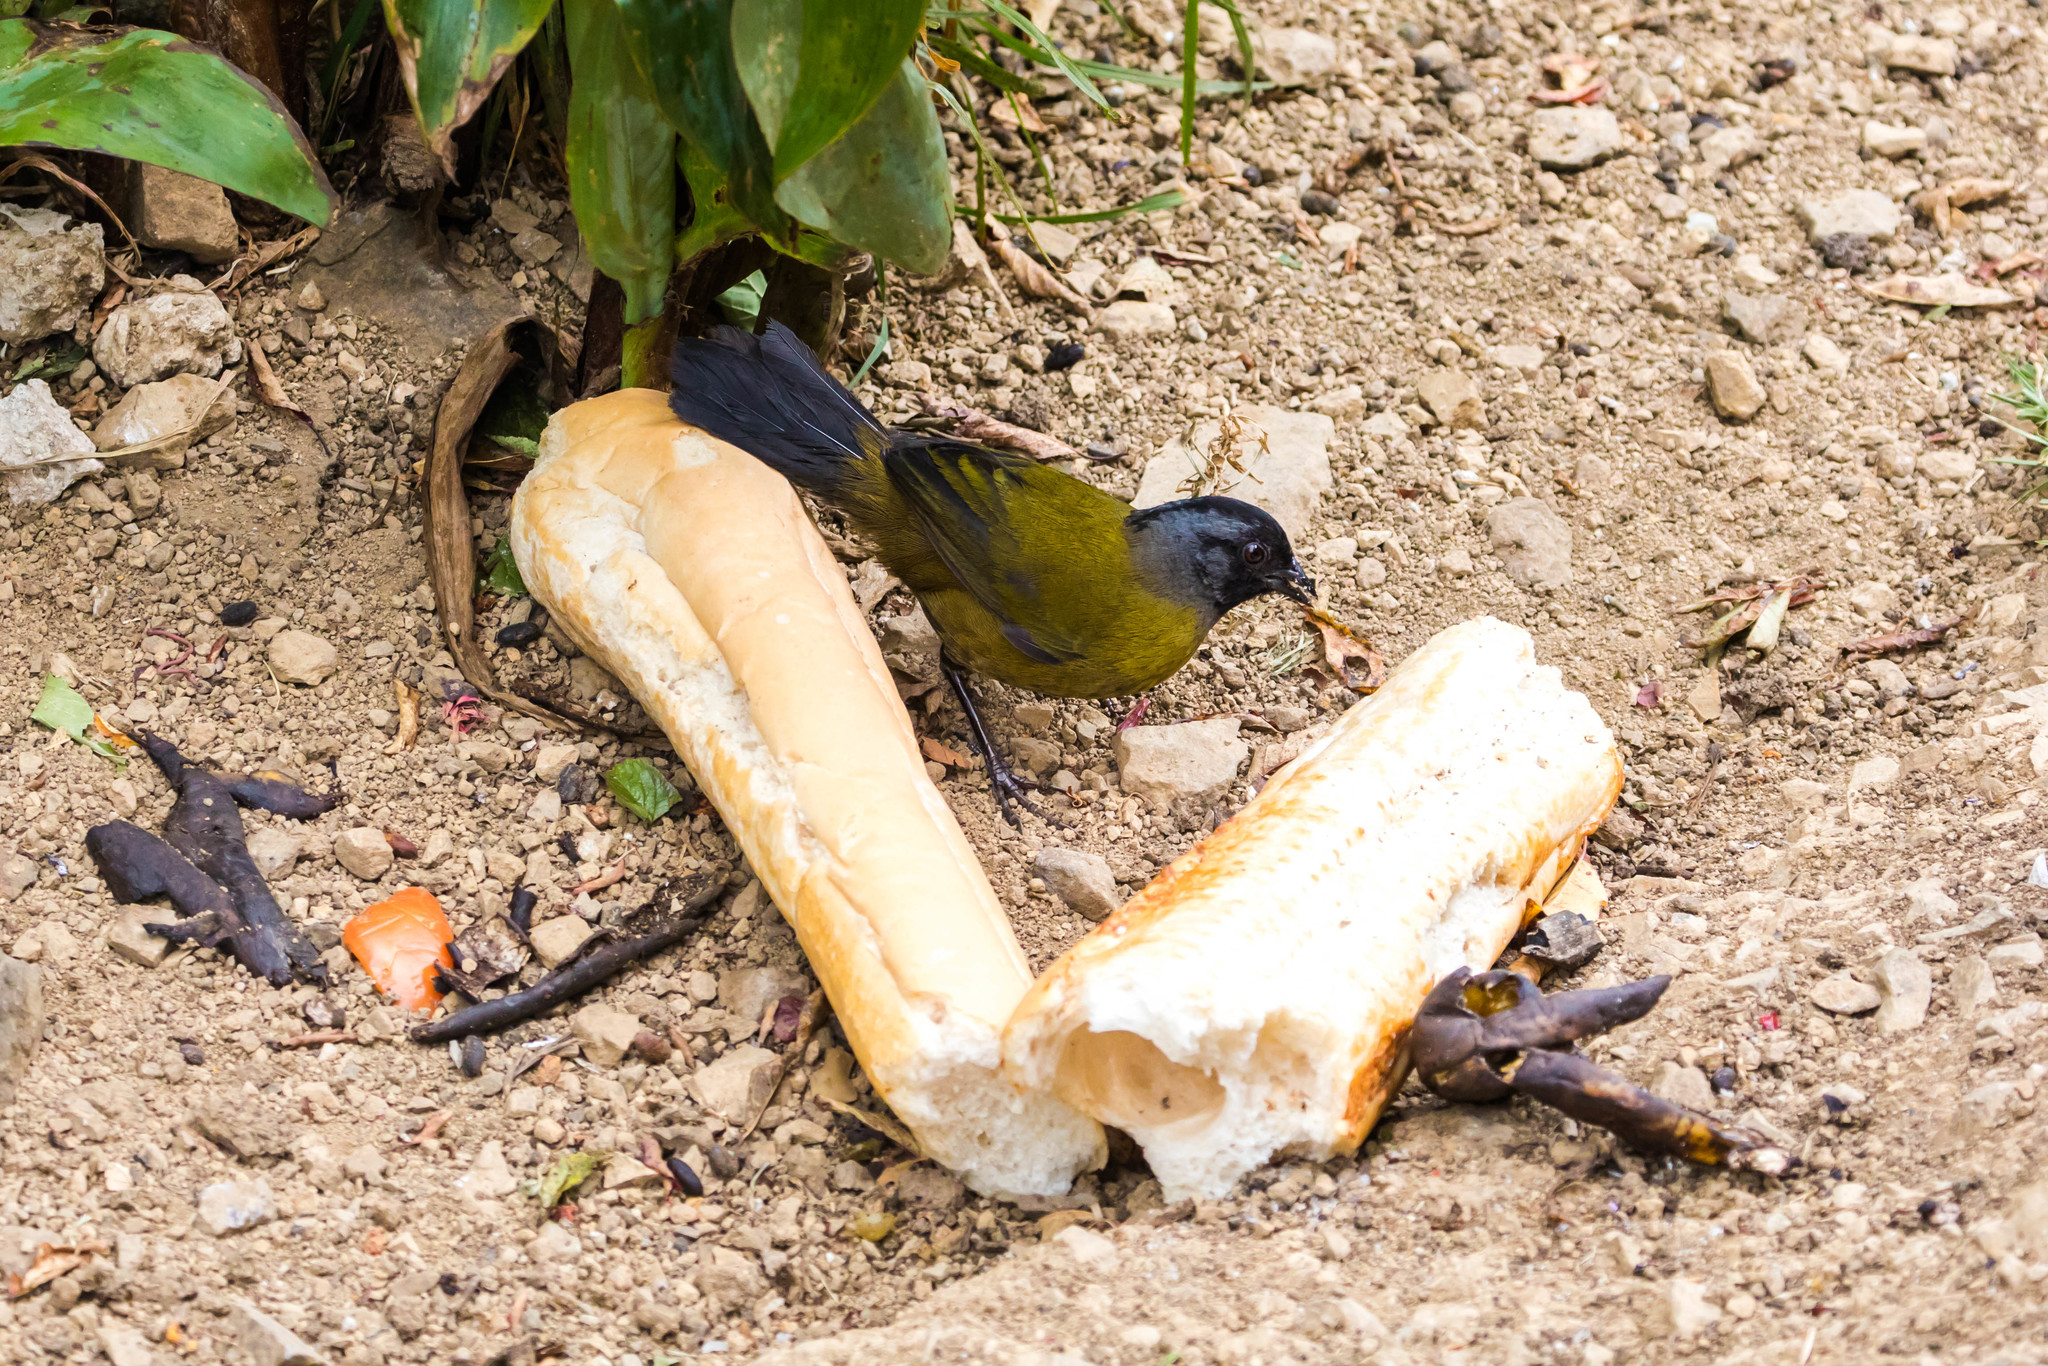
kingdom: Animalia
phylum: Chordata
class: Aves
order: Passeriformes
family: Passerellidae
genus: Pezopetes
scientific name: Pezopetes capitalis
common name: Large-footed finch
